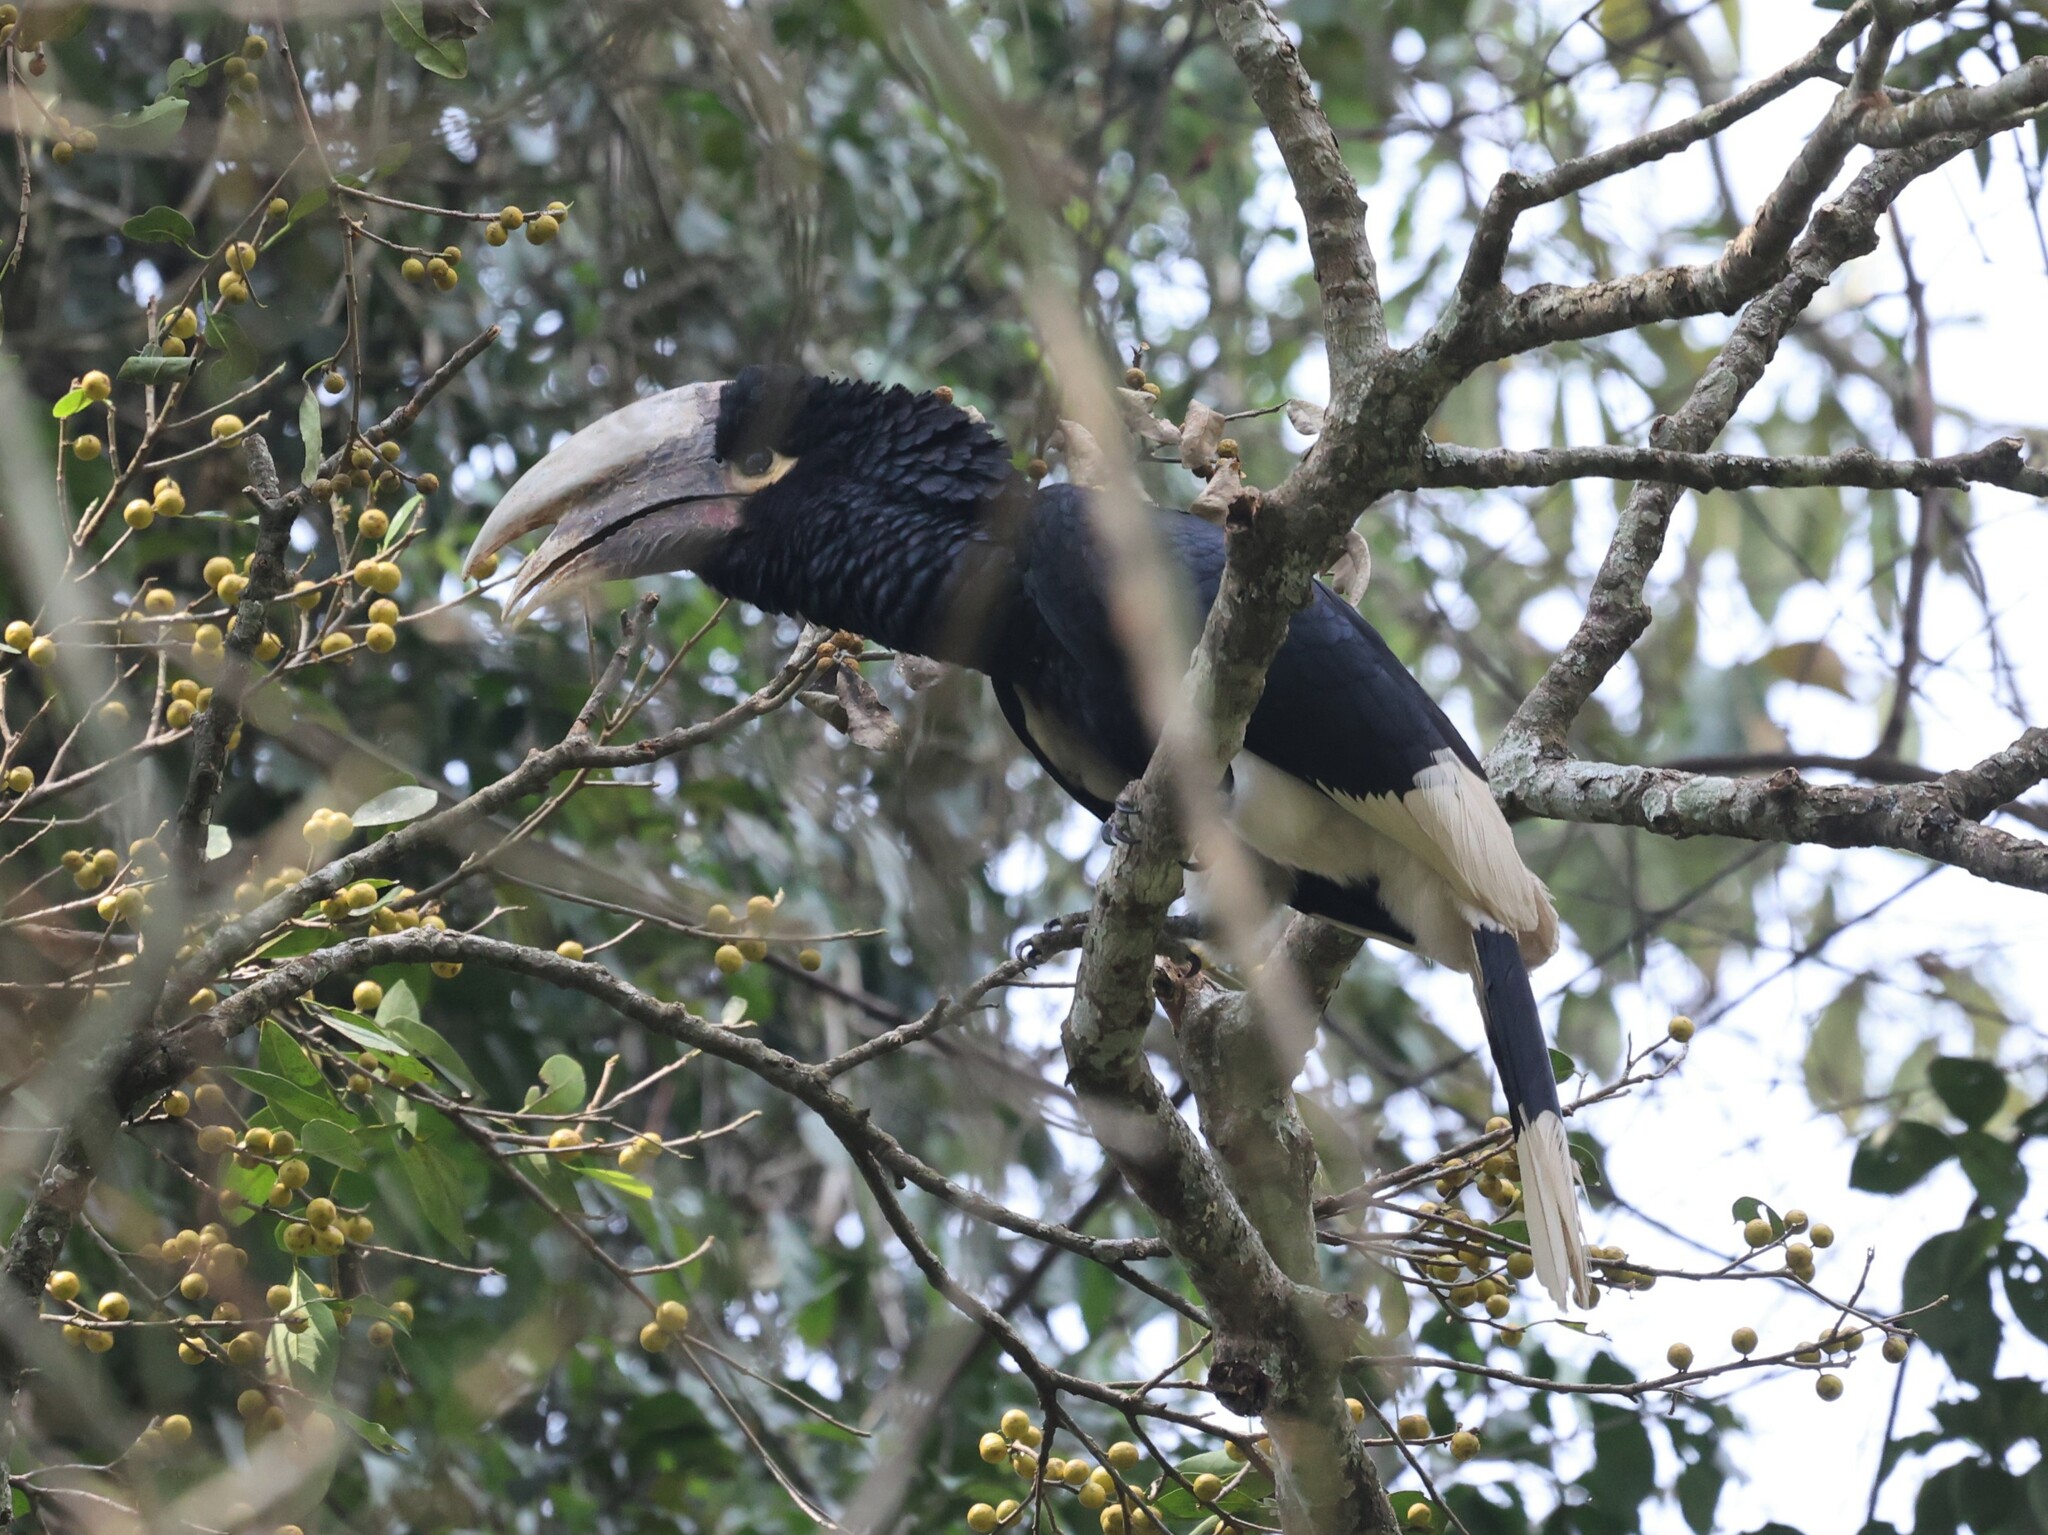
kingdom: Animalia
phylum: Chordata
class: Aves
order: Bucerotiformes
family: Bucerotidae
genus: Bycanistes
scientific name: Bycanistes albotibialis
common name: White-thighed hornbill
